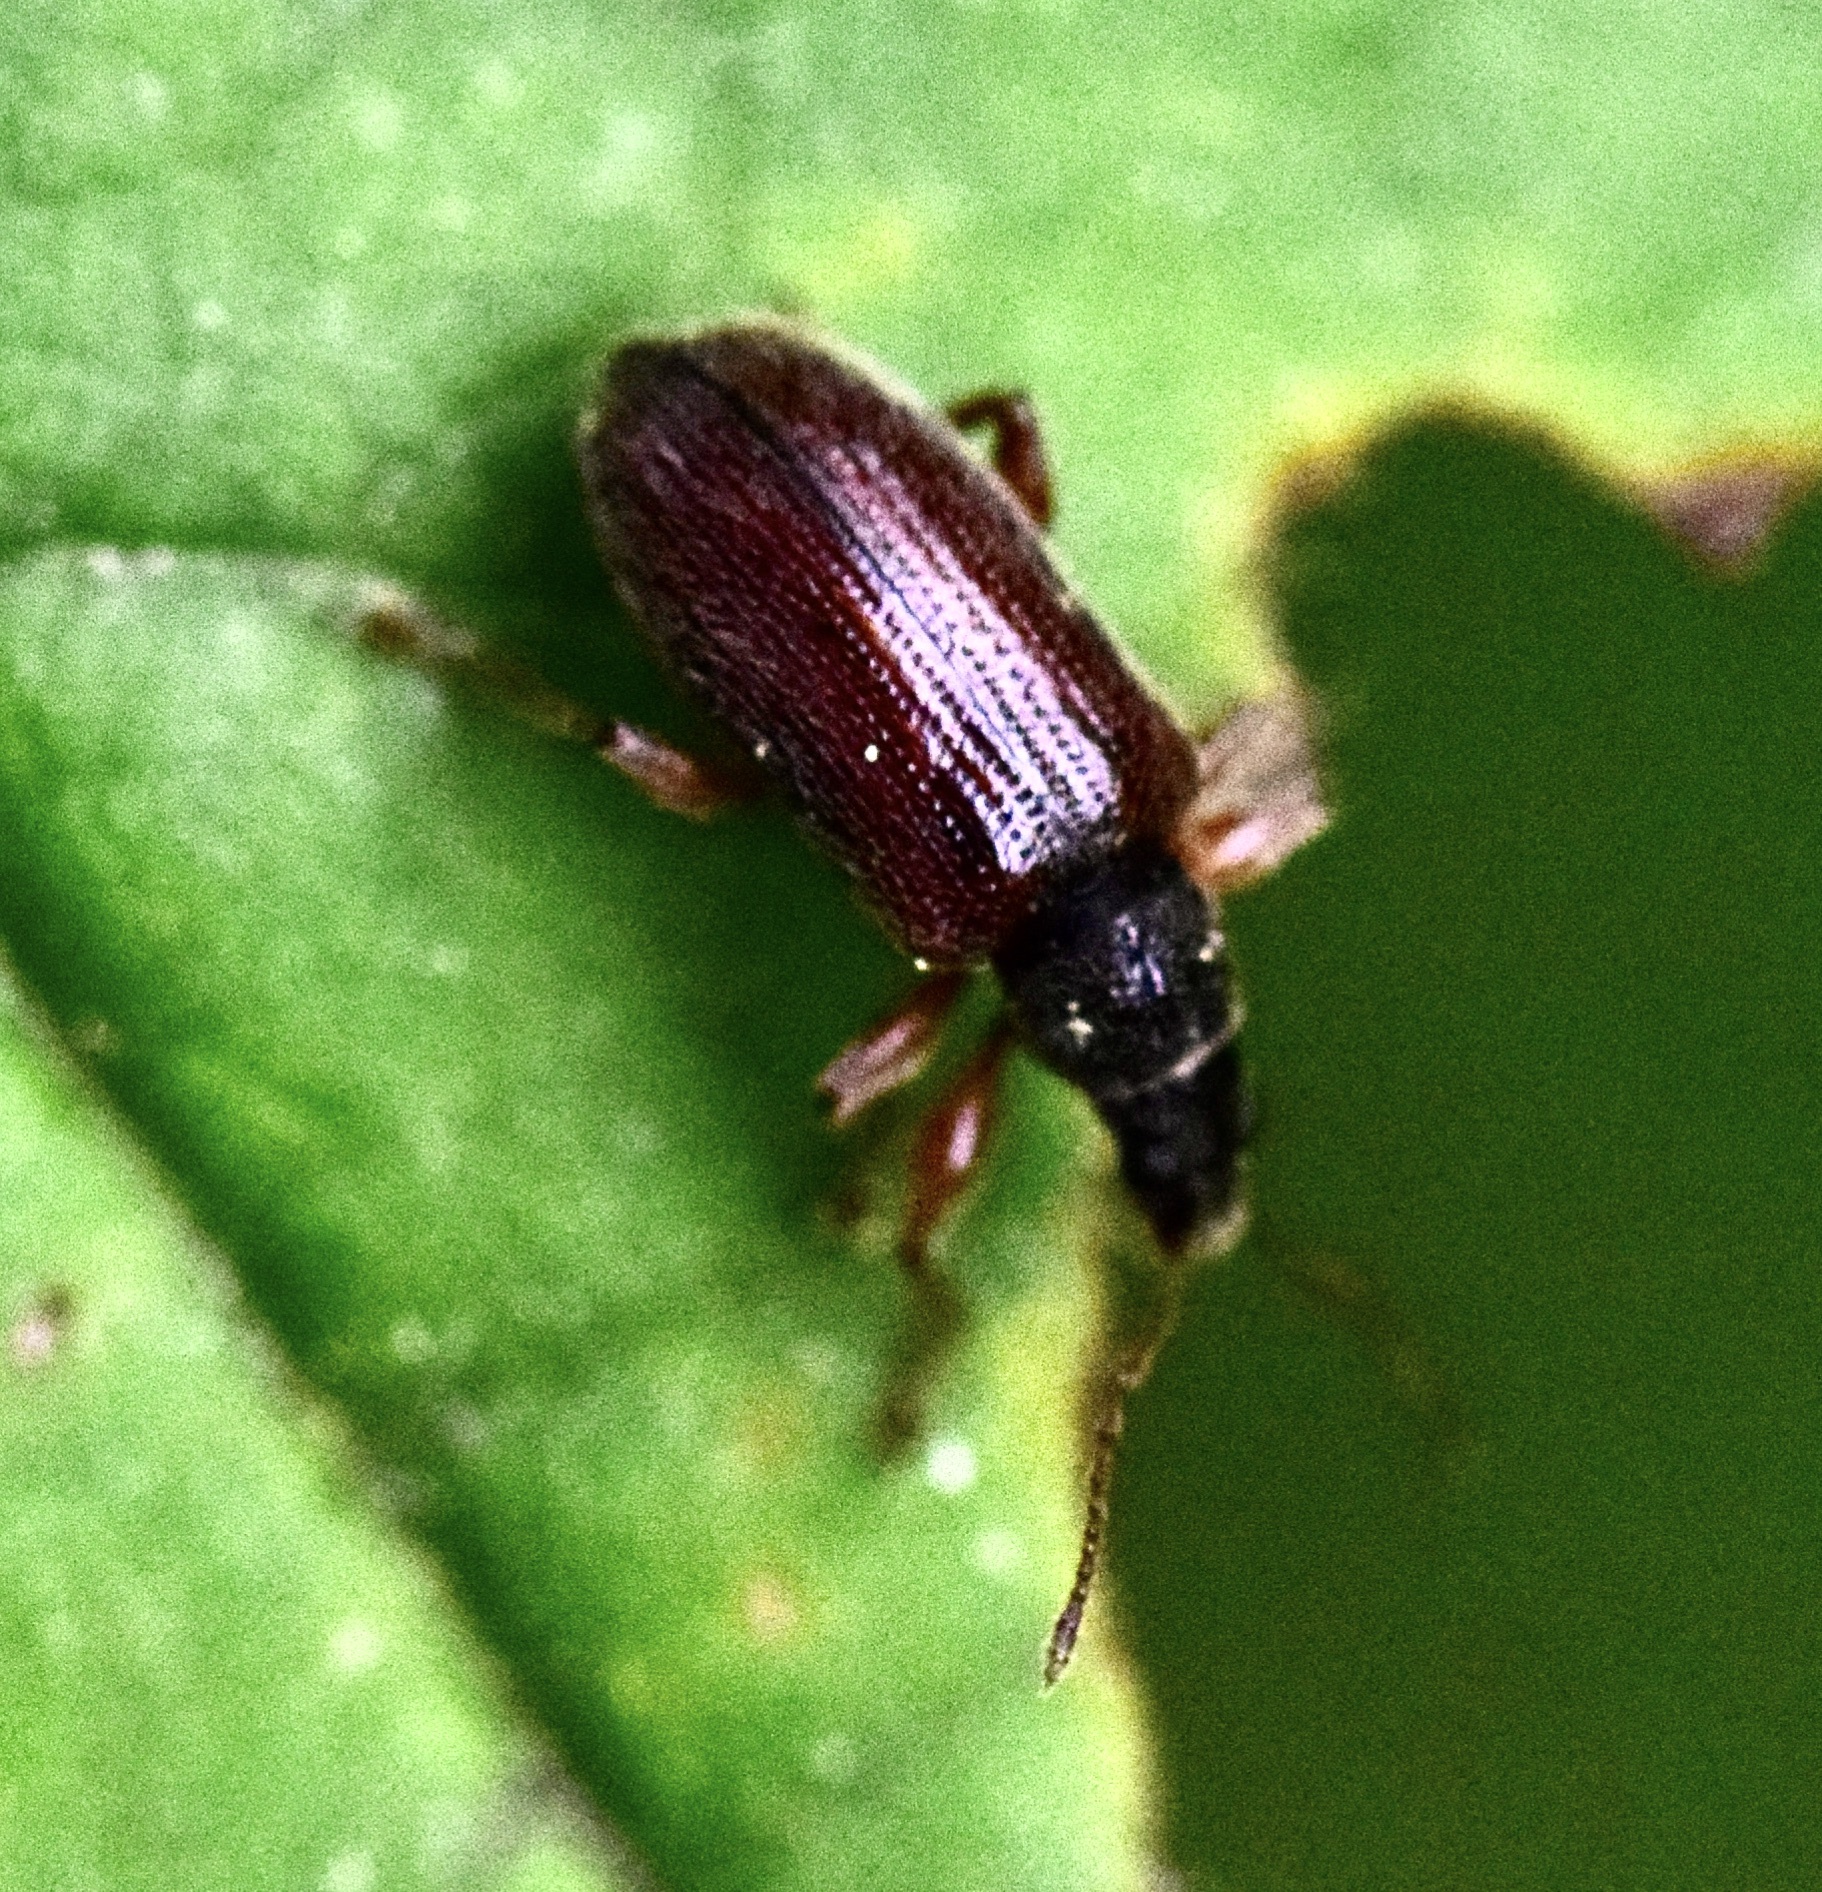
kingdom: Animalia
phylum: Arthropoda
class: Insecta
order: Coleoptera
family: Curculionidae
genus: Phyllobius
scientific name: Phyllobius oblongus
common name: Brown leaf weevil
